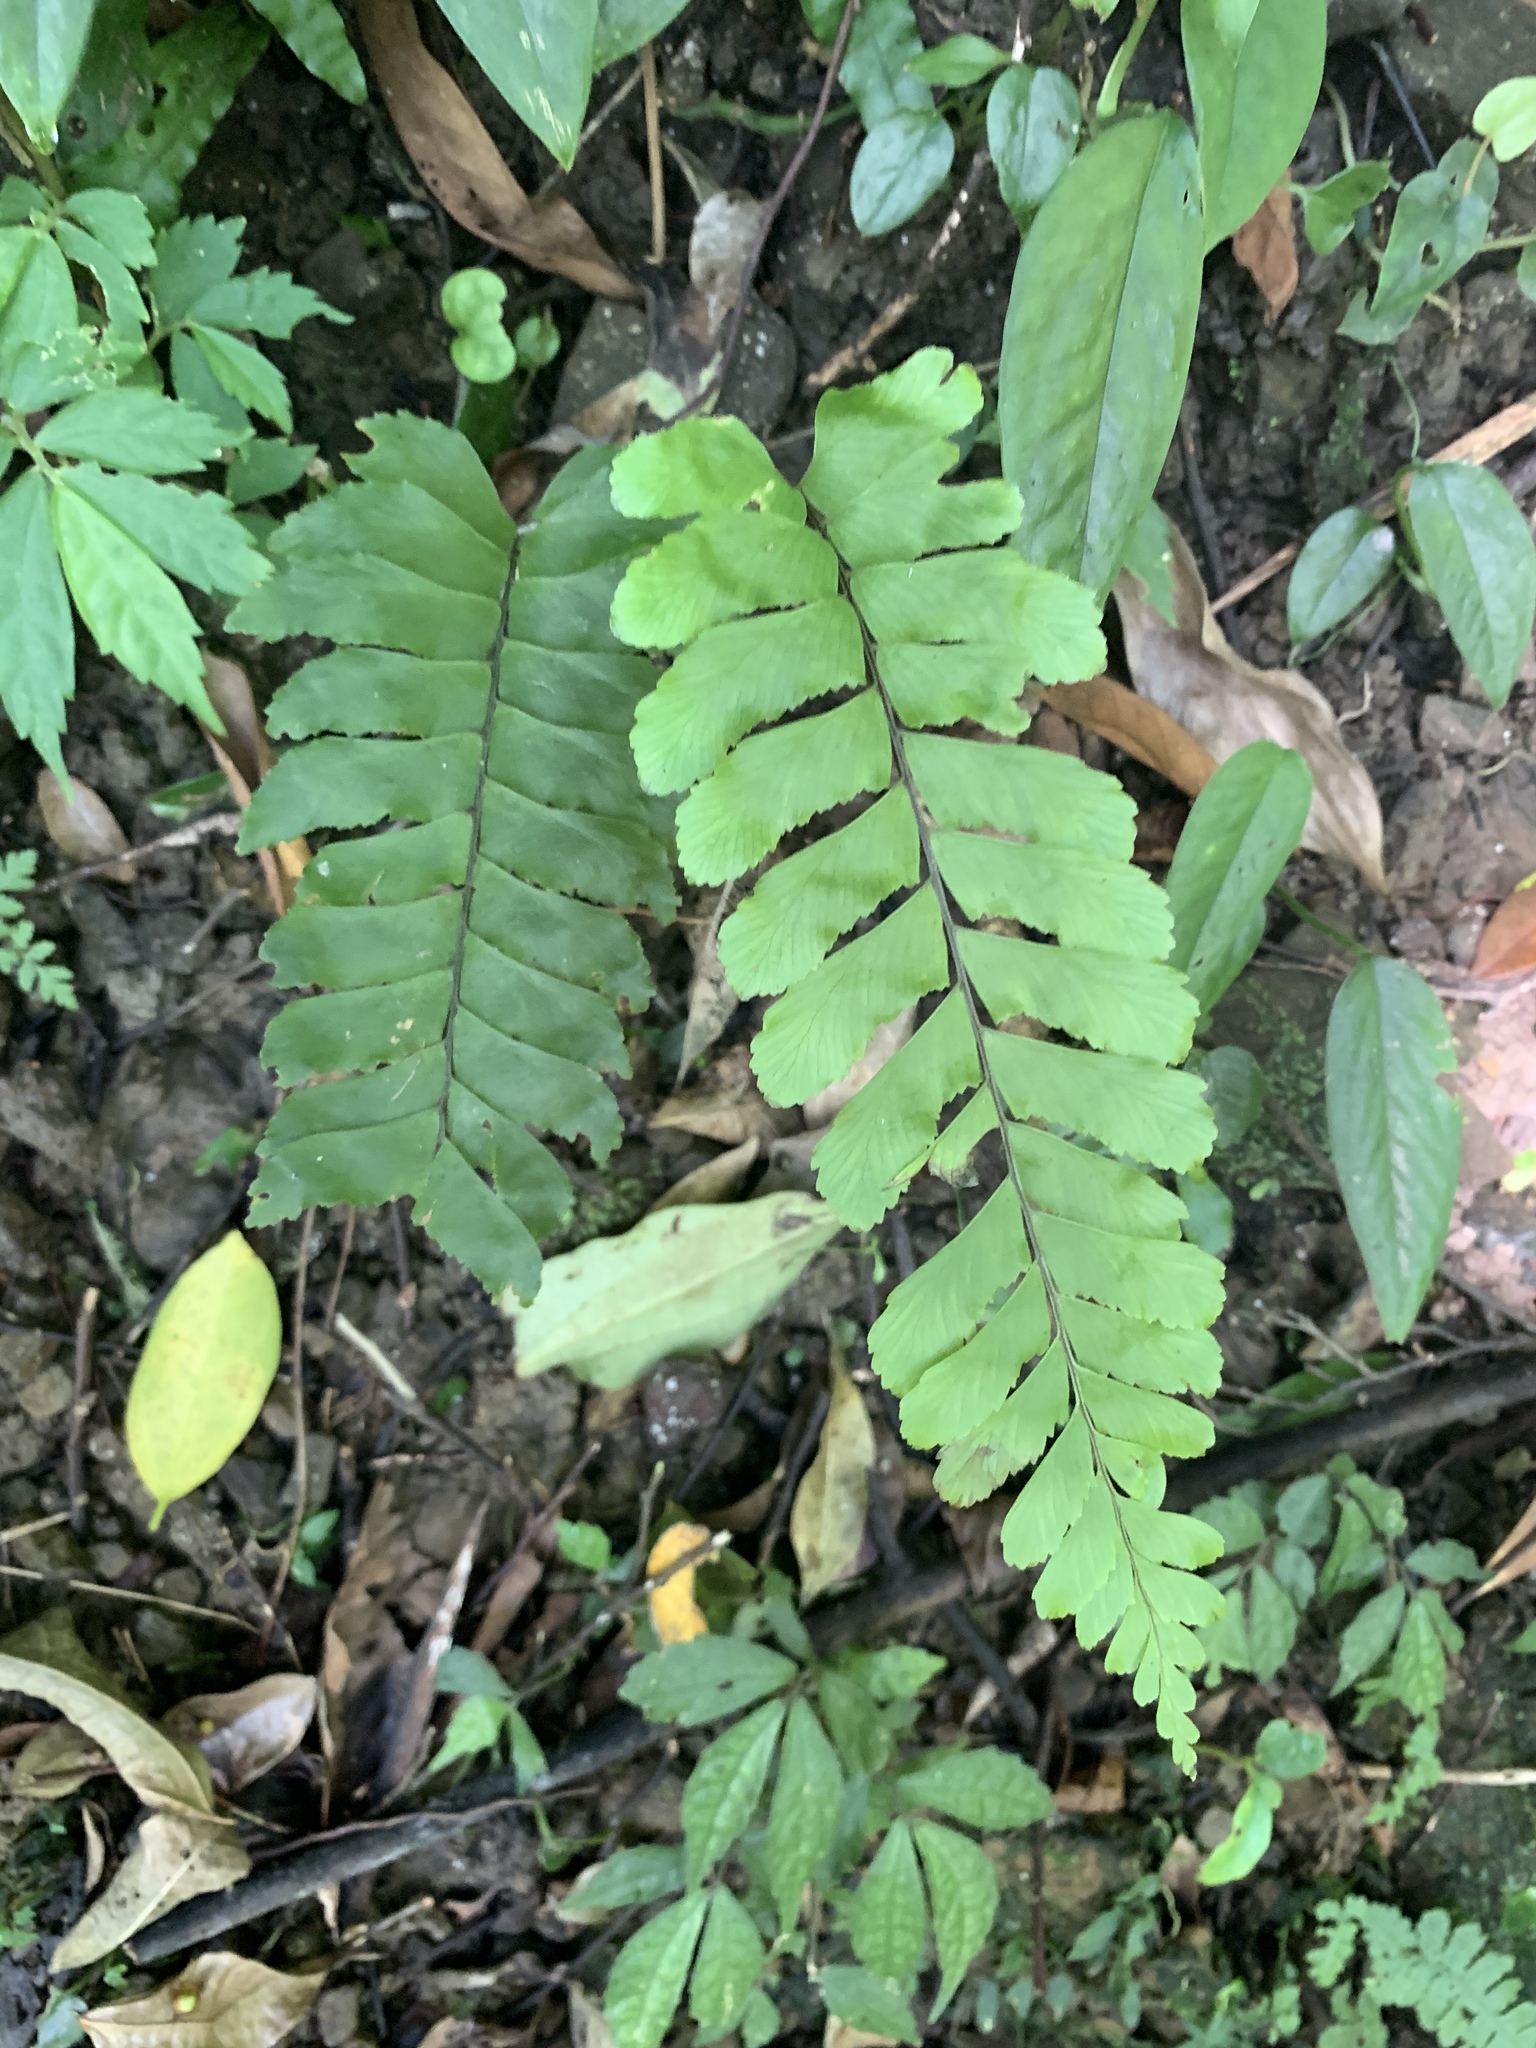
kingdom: Plantae
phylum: Tracheophyta
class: Polypodiopsida
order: Polypodiales
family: Aspleniaceae
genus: Hymenasplenium
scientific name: Hymenasplenium excisum
